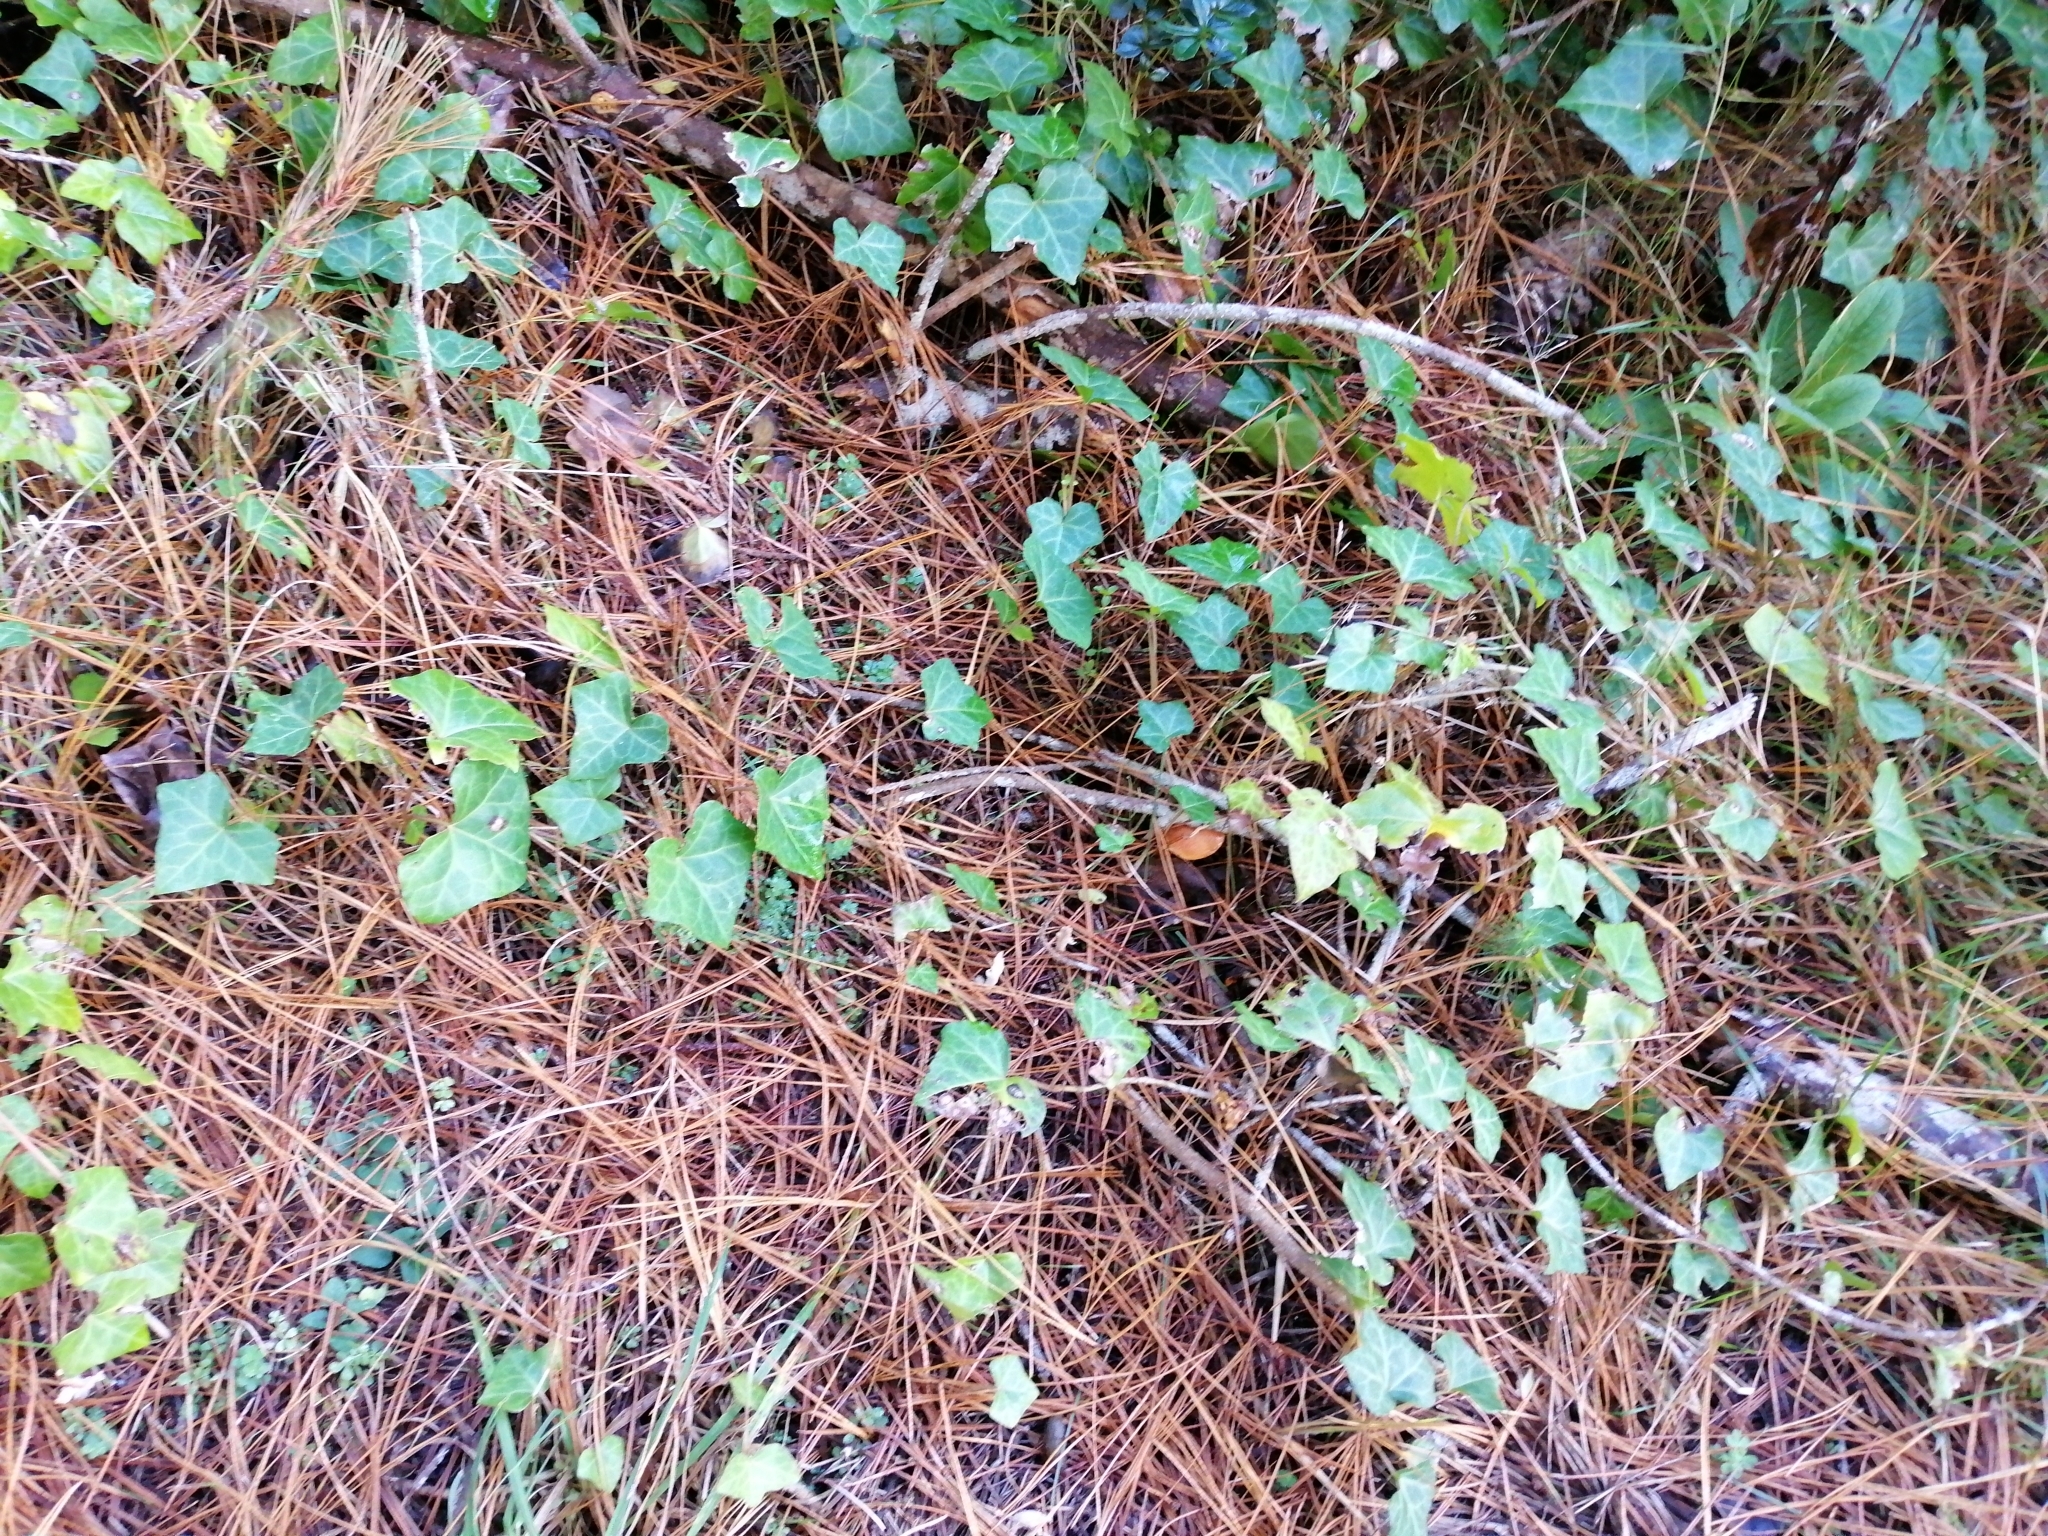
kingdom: Plantae
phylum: Tracheophyta
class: Magnoliopsida
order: Apiales
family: Araliaceae
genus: Hedera
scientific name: Hedera helix
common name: Ivy
